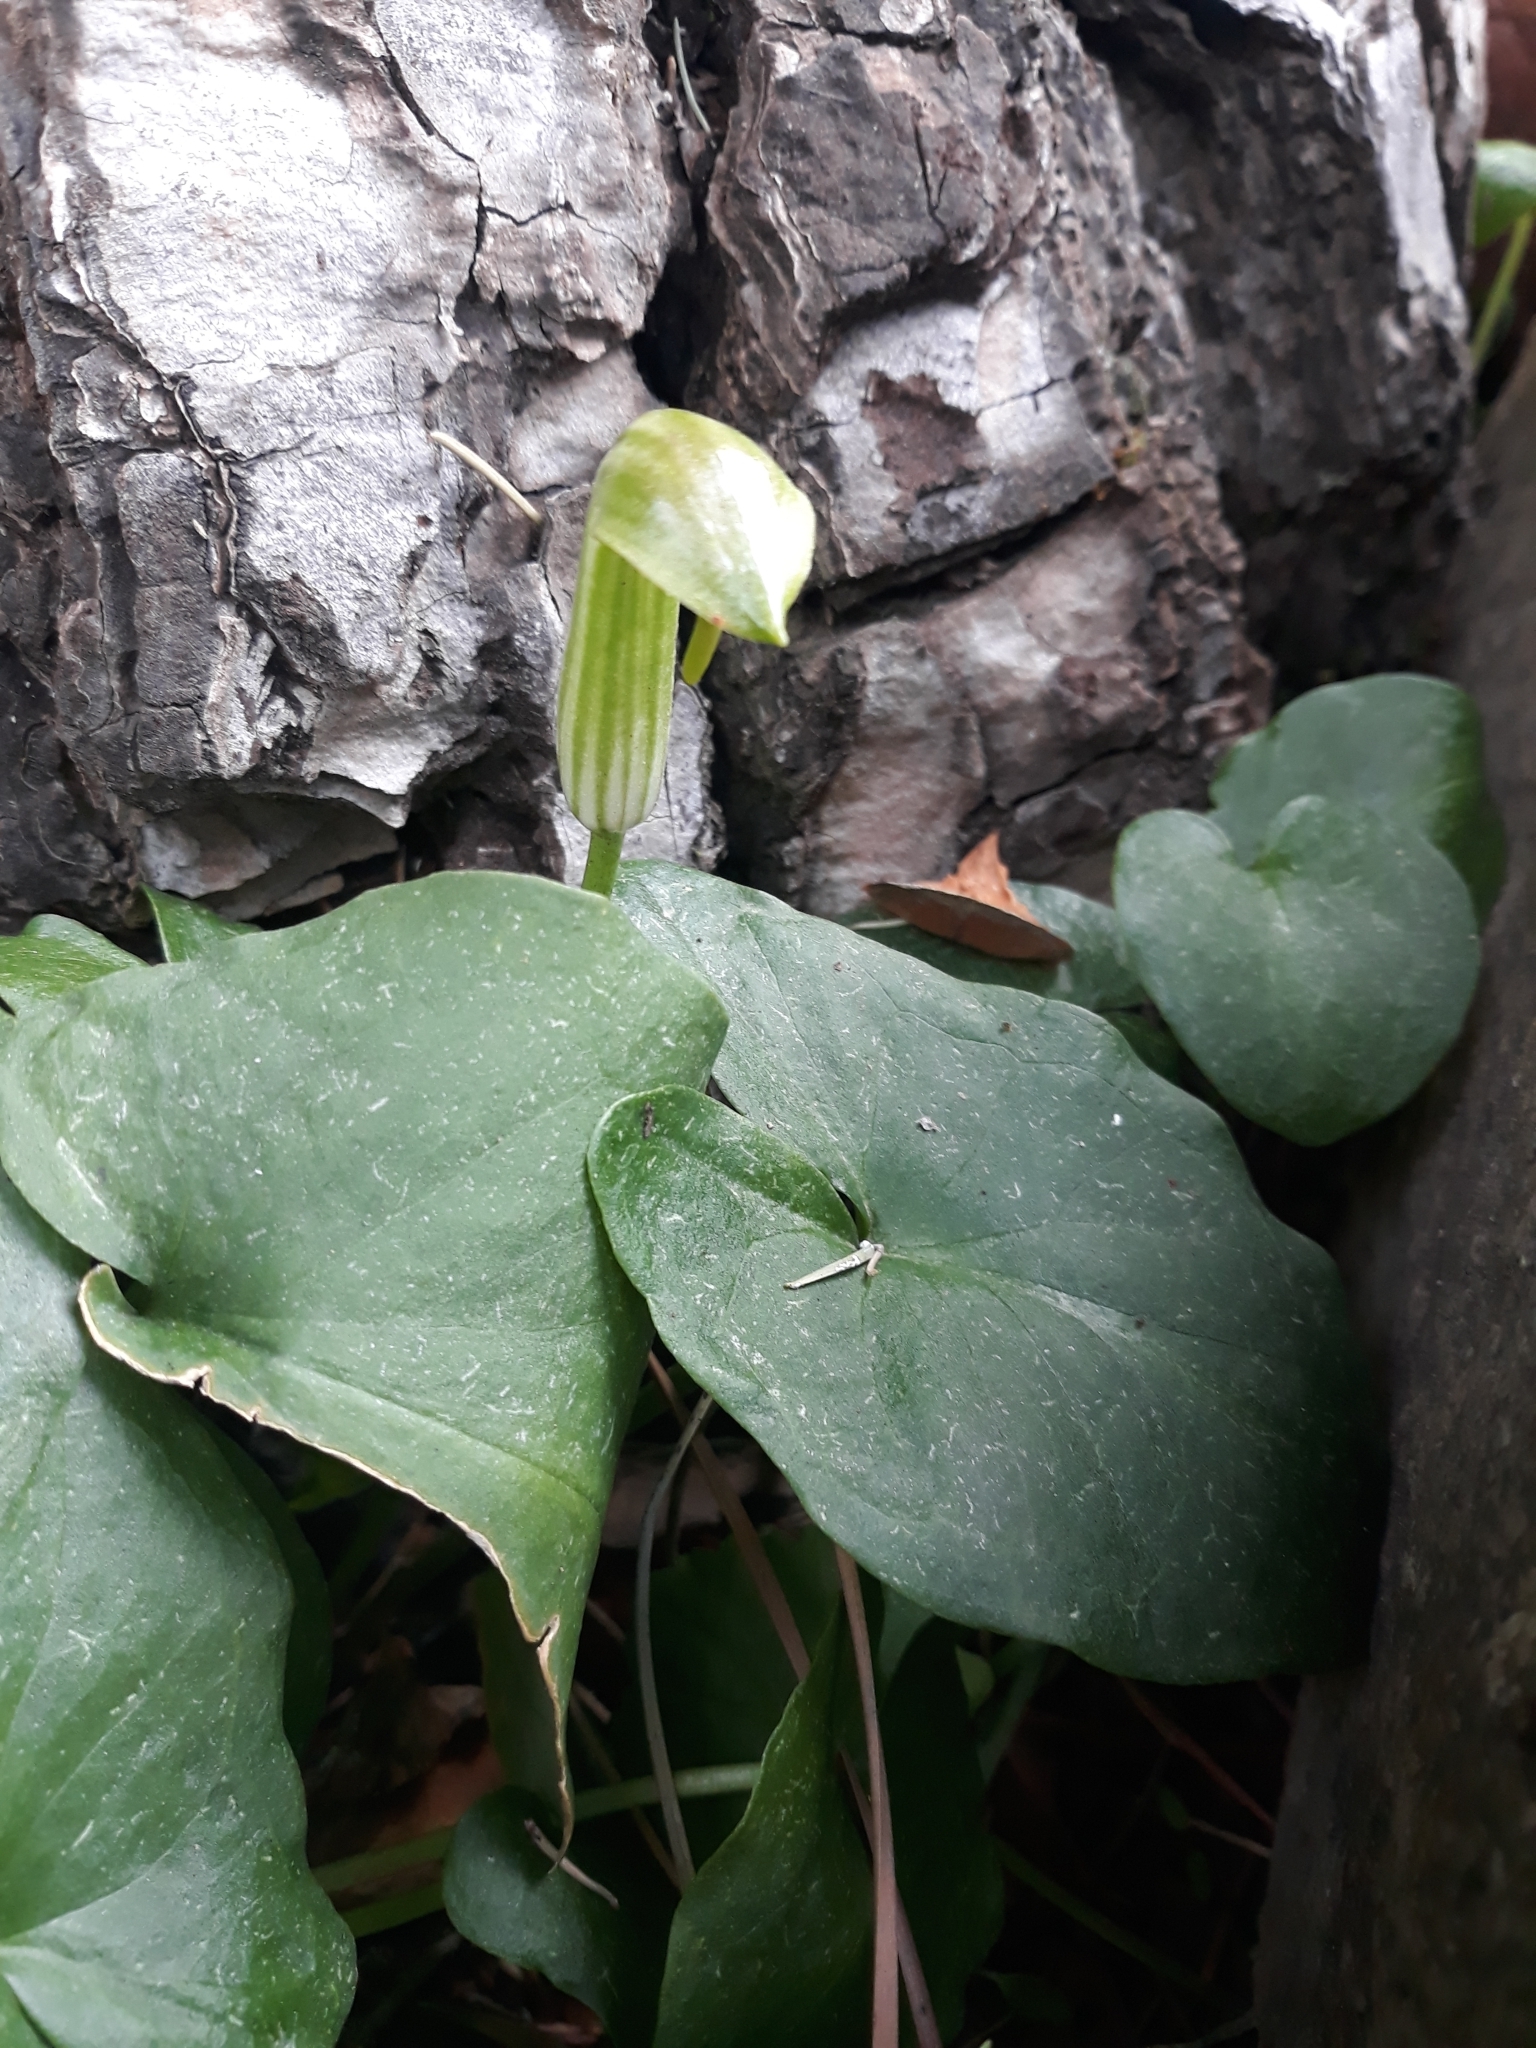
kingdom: Plantae
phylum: Tracheophyta
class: Liliopsida
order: Alismatales
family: Araceae
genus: Arisarum
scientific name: Arisarum vulgare
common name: Common arisarum
